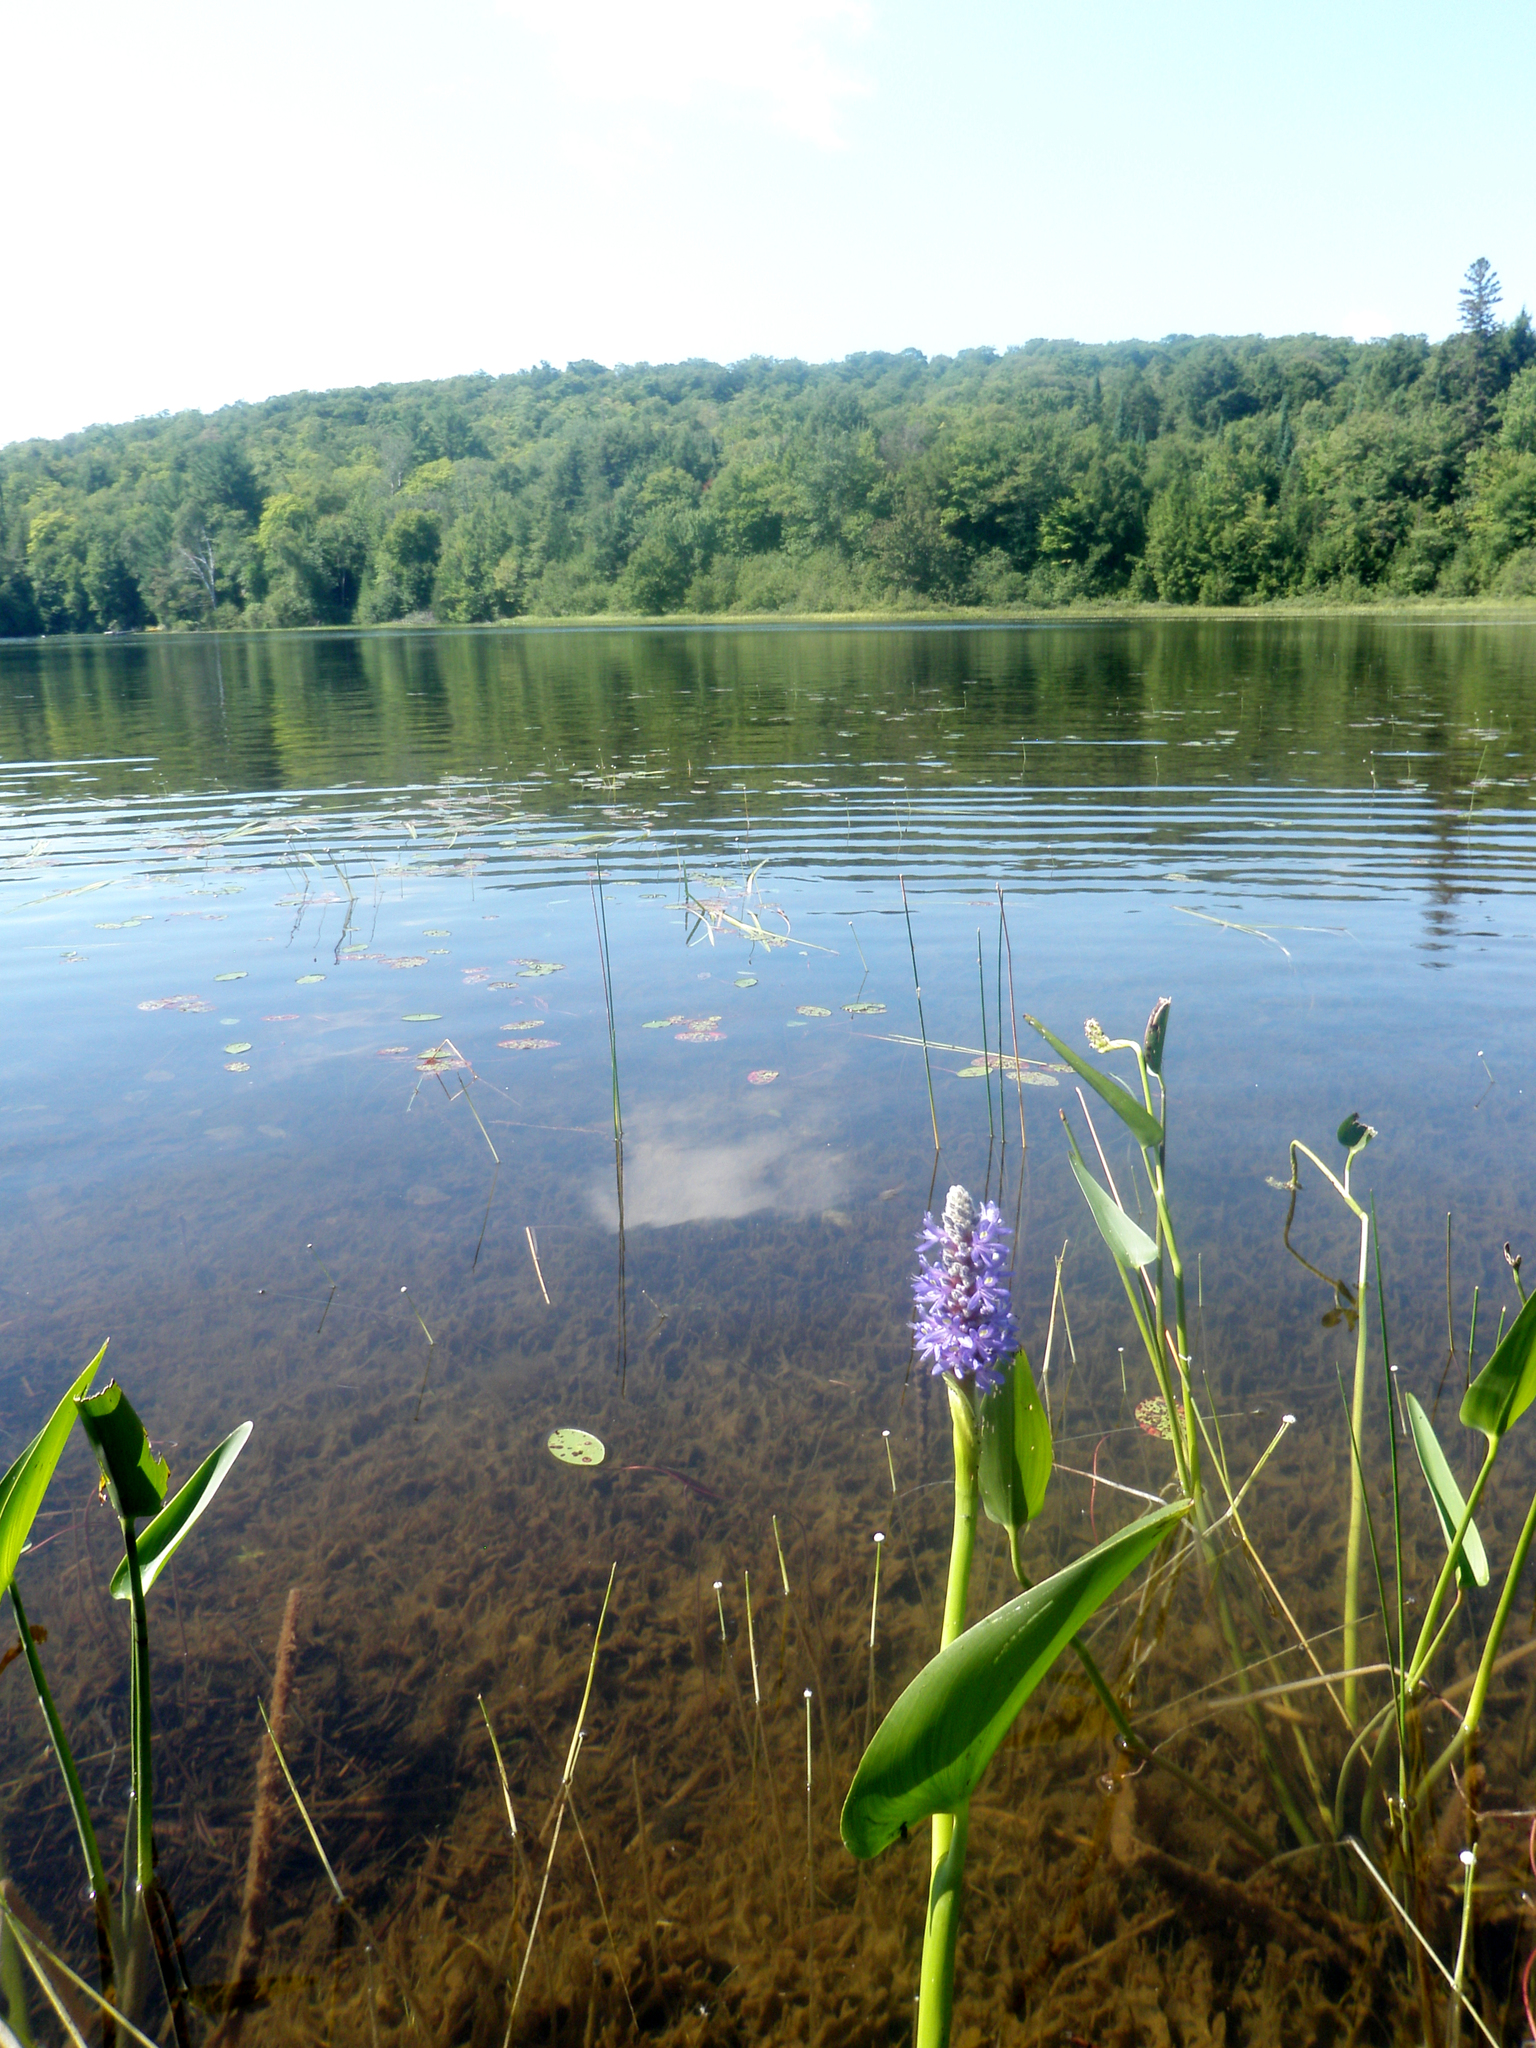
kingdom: Plantae
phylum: Tracheophyta
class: Liliopsida
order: Commelinales
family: Pontederiaceae
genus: Pontederia
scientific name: Pontederia cordata
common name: Pickerelweed
